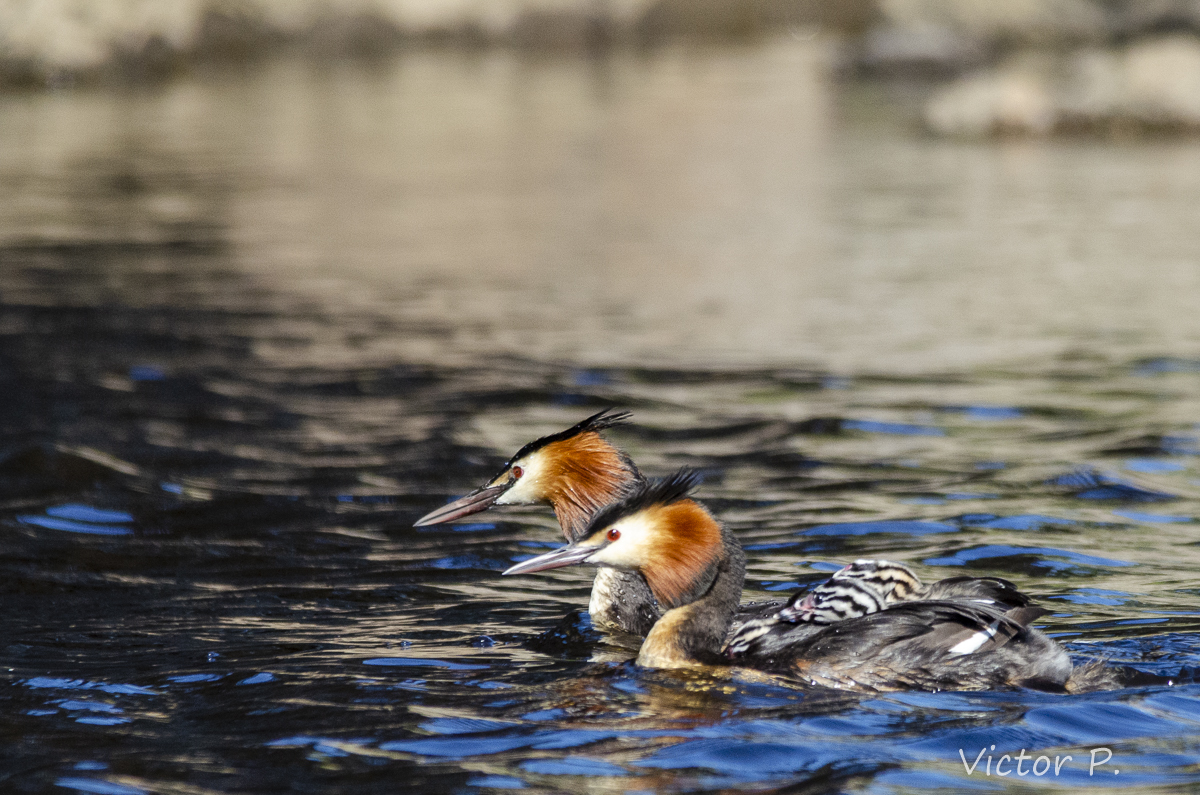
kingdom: Animalia
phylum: Chordata
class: Aves
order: Podicipediformes
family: Podicipedidae
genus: Podiceps
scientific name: Podiceps cristatus
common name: Great crested grebe
